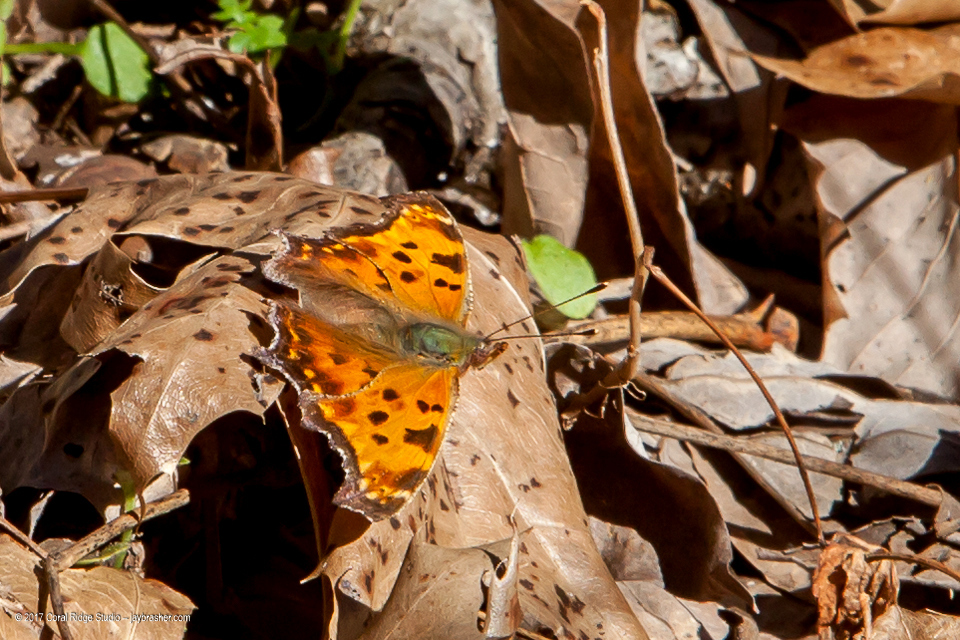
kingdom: Animalia
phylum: Arthropoda
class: Insecta
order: Lepidoptera
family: Nymphalidae
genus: Polygonia
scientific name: Polygonia comma
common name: Eastern comma
